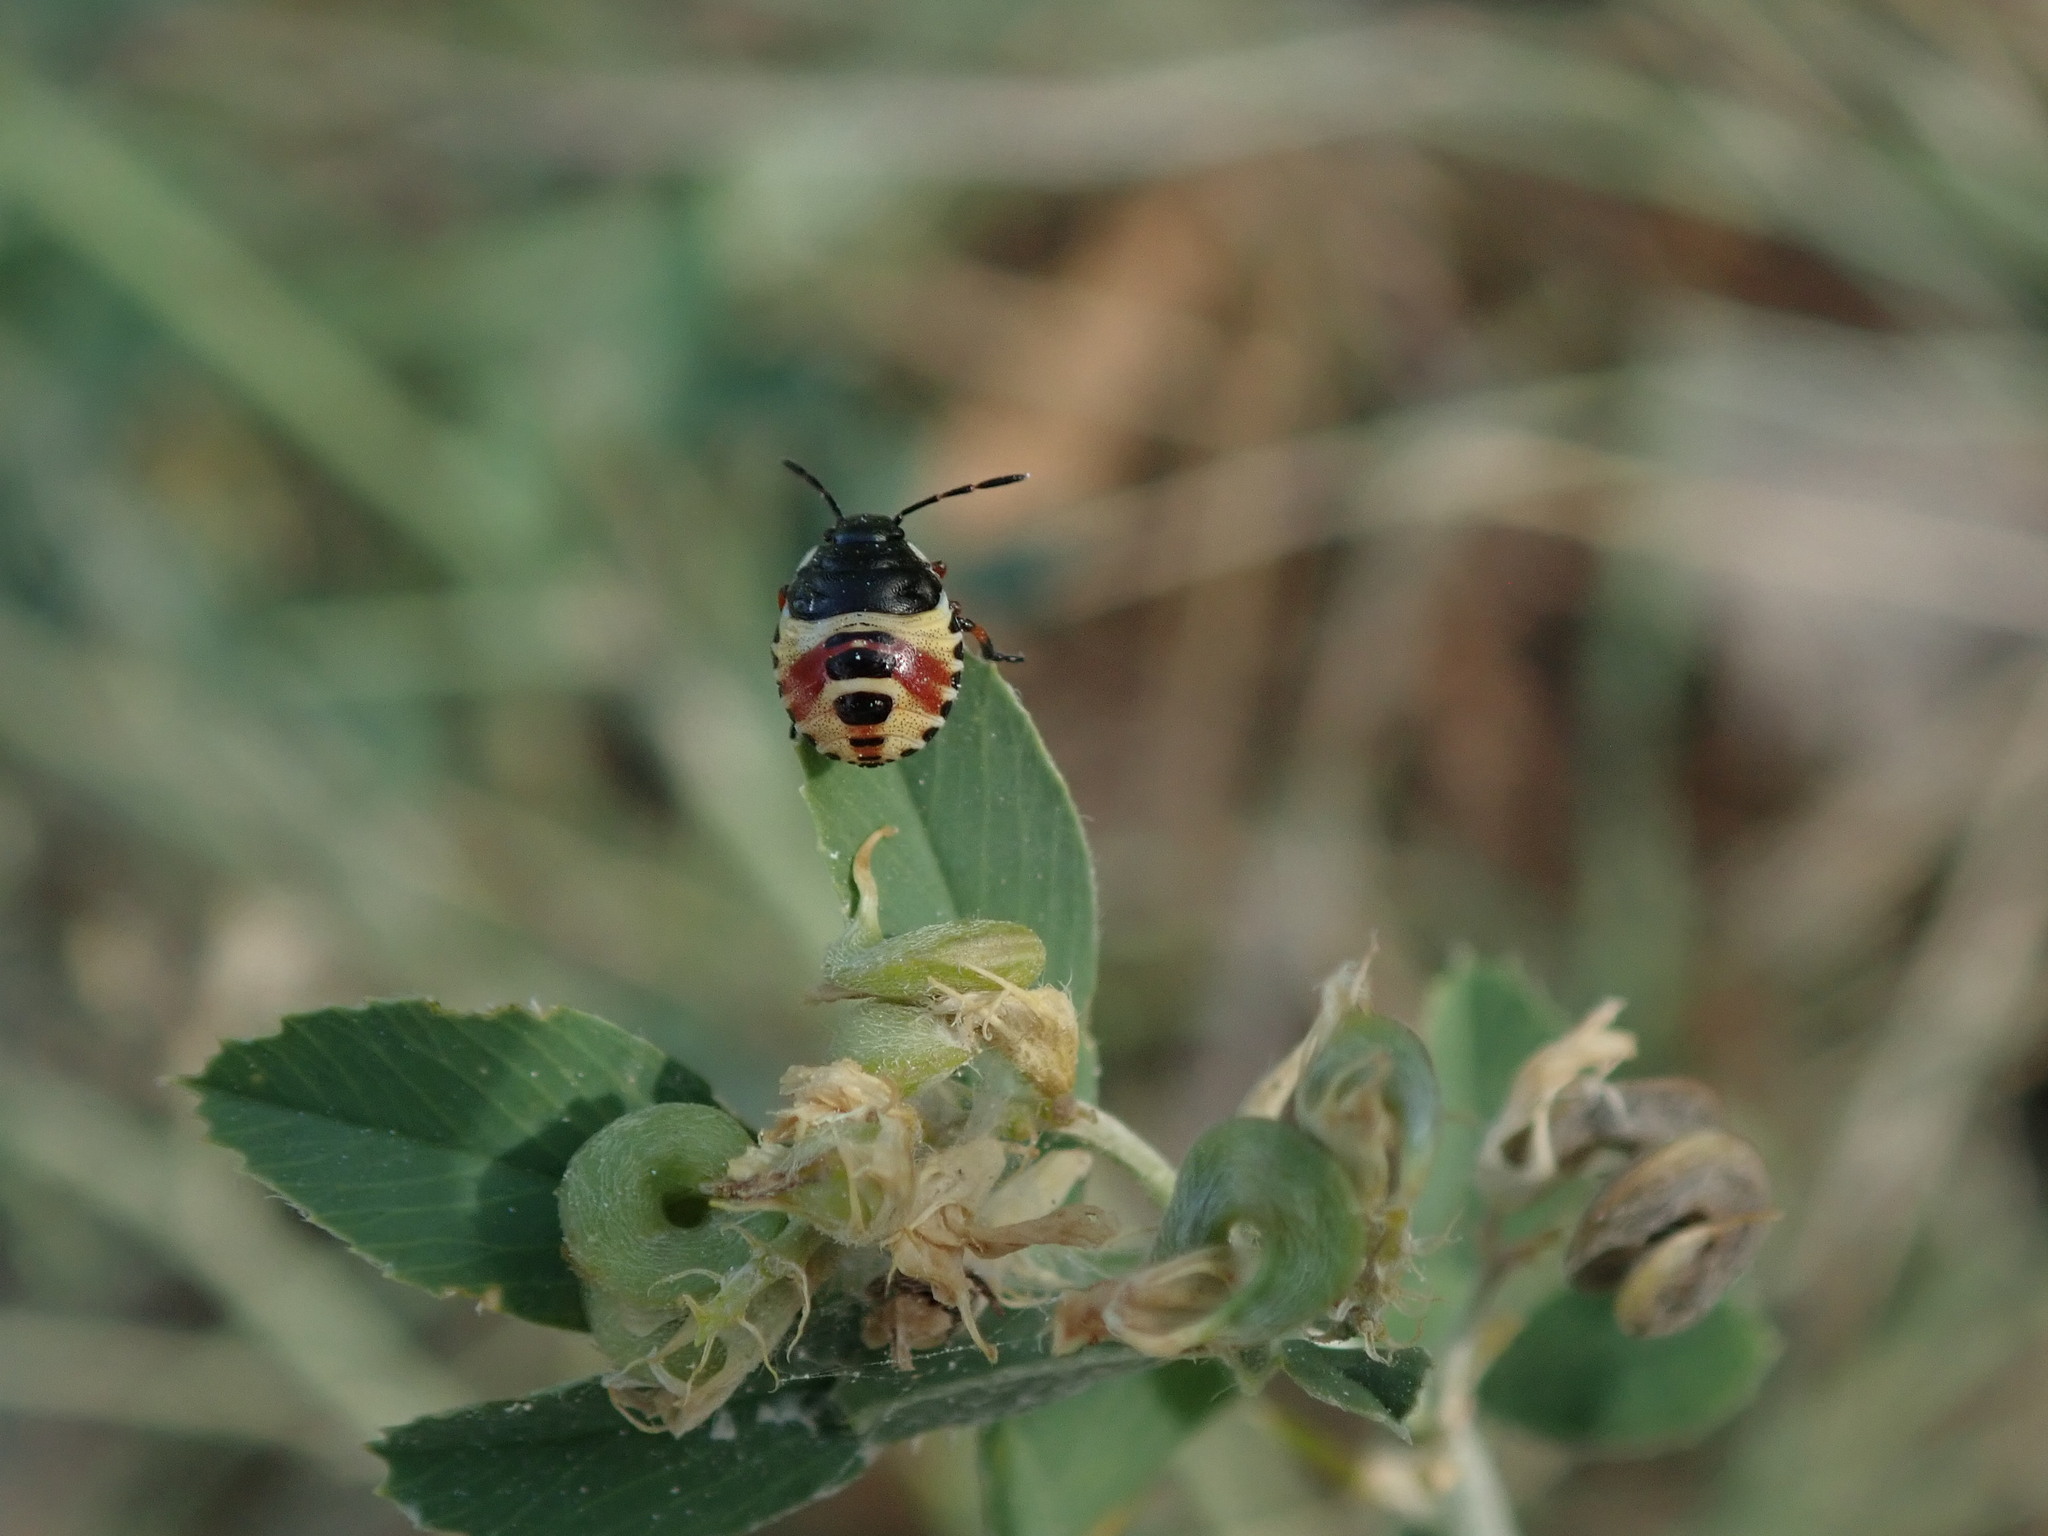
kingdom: Animalia
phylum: Arthropoda
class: Insecta
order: Hemiptera
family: Pentatomidae
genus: Carpocoris
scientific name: Carpocoris
